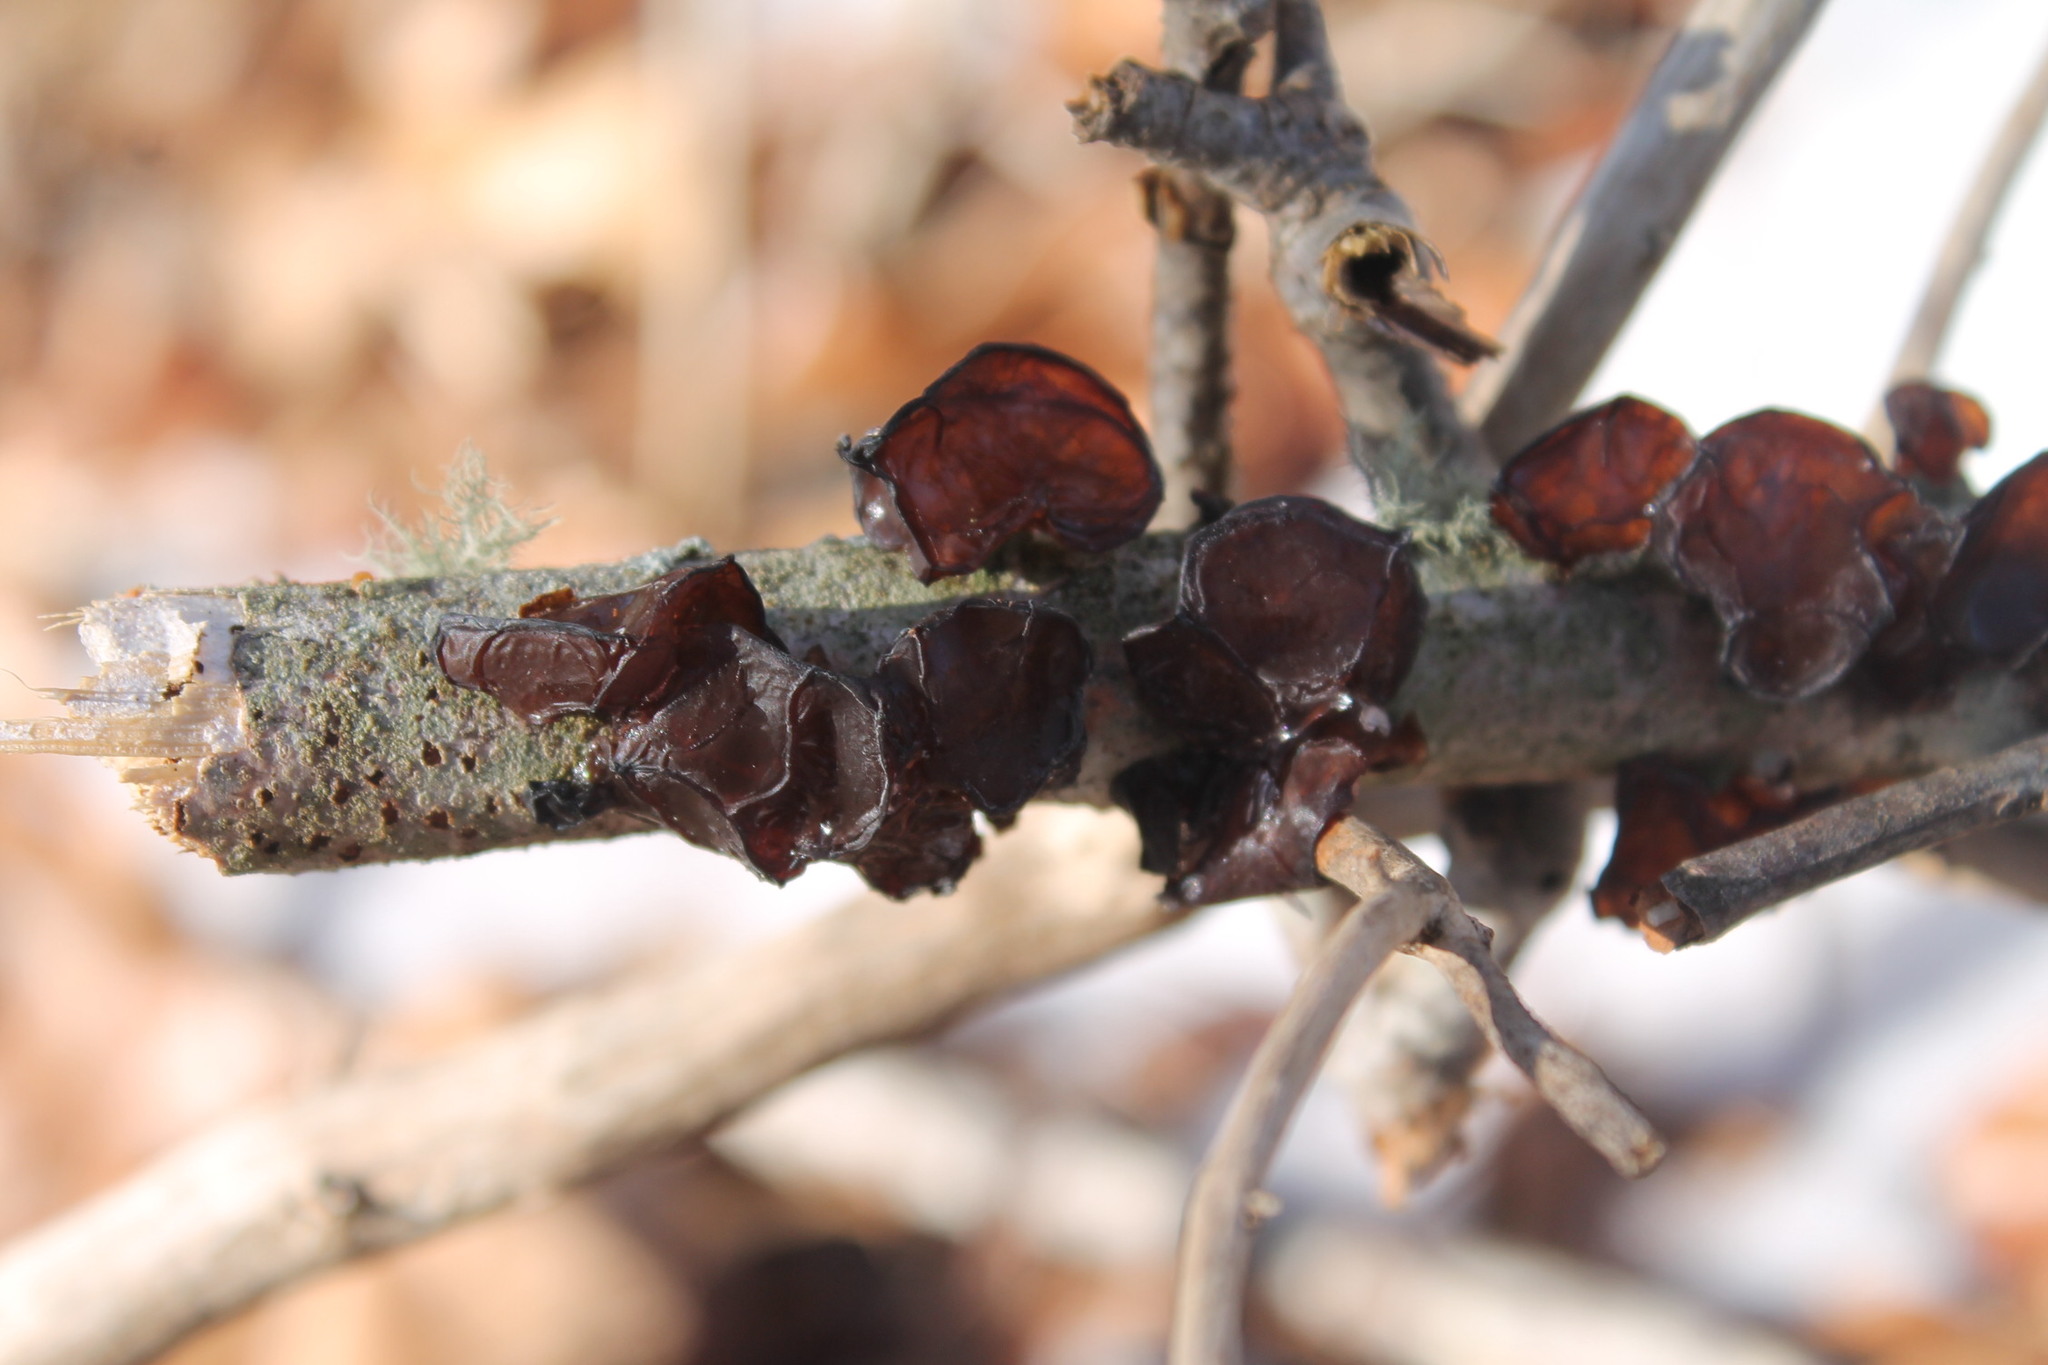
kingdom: Fungi
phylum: Basidiomycota
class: Agaricomycetes
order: Auriculariales
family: Auriculariaceae
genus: Exidia
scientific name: Exidia
